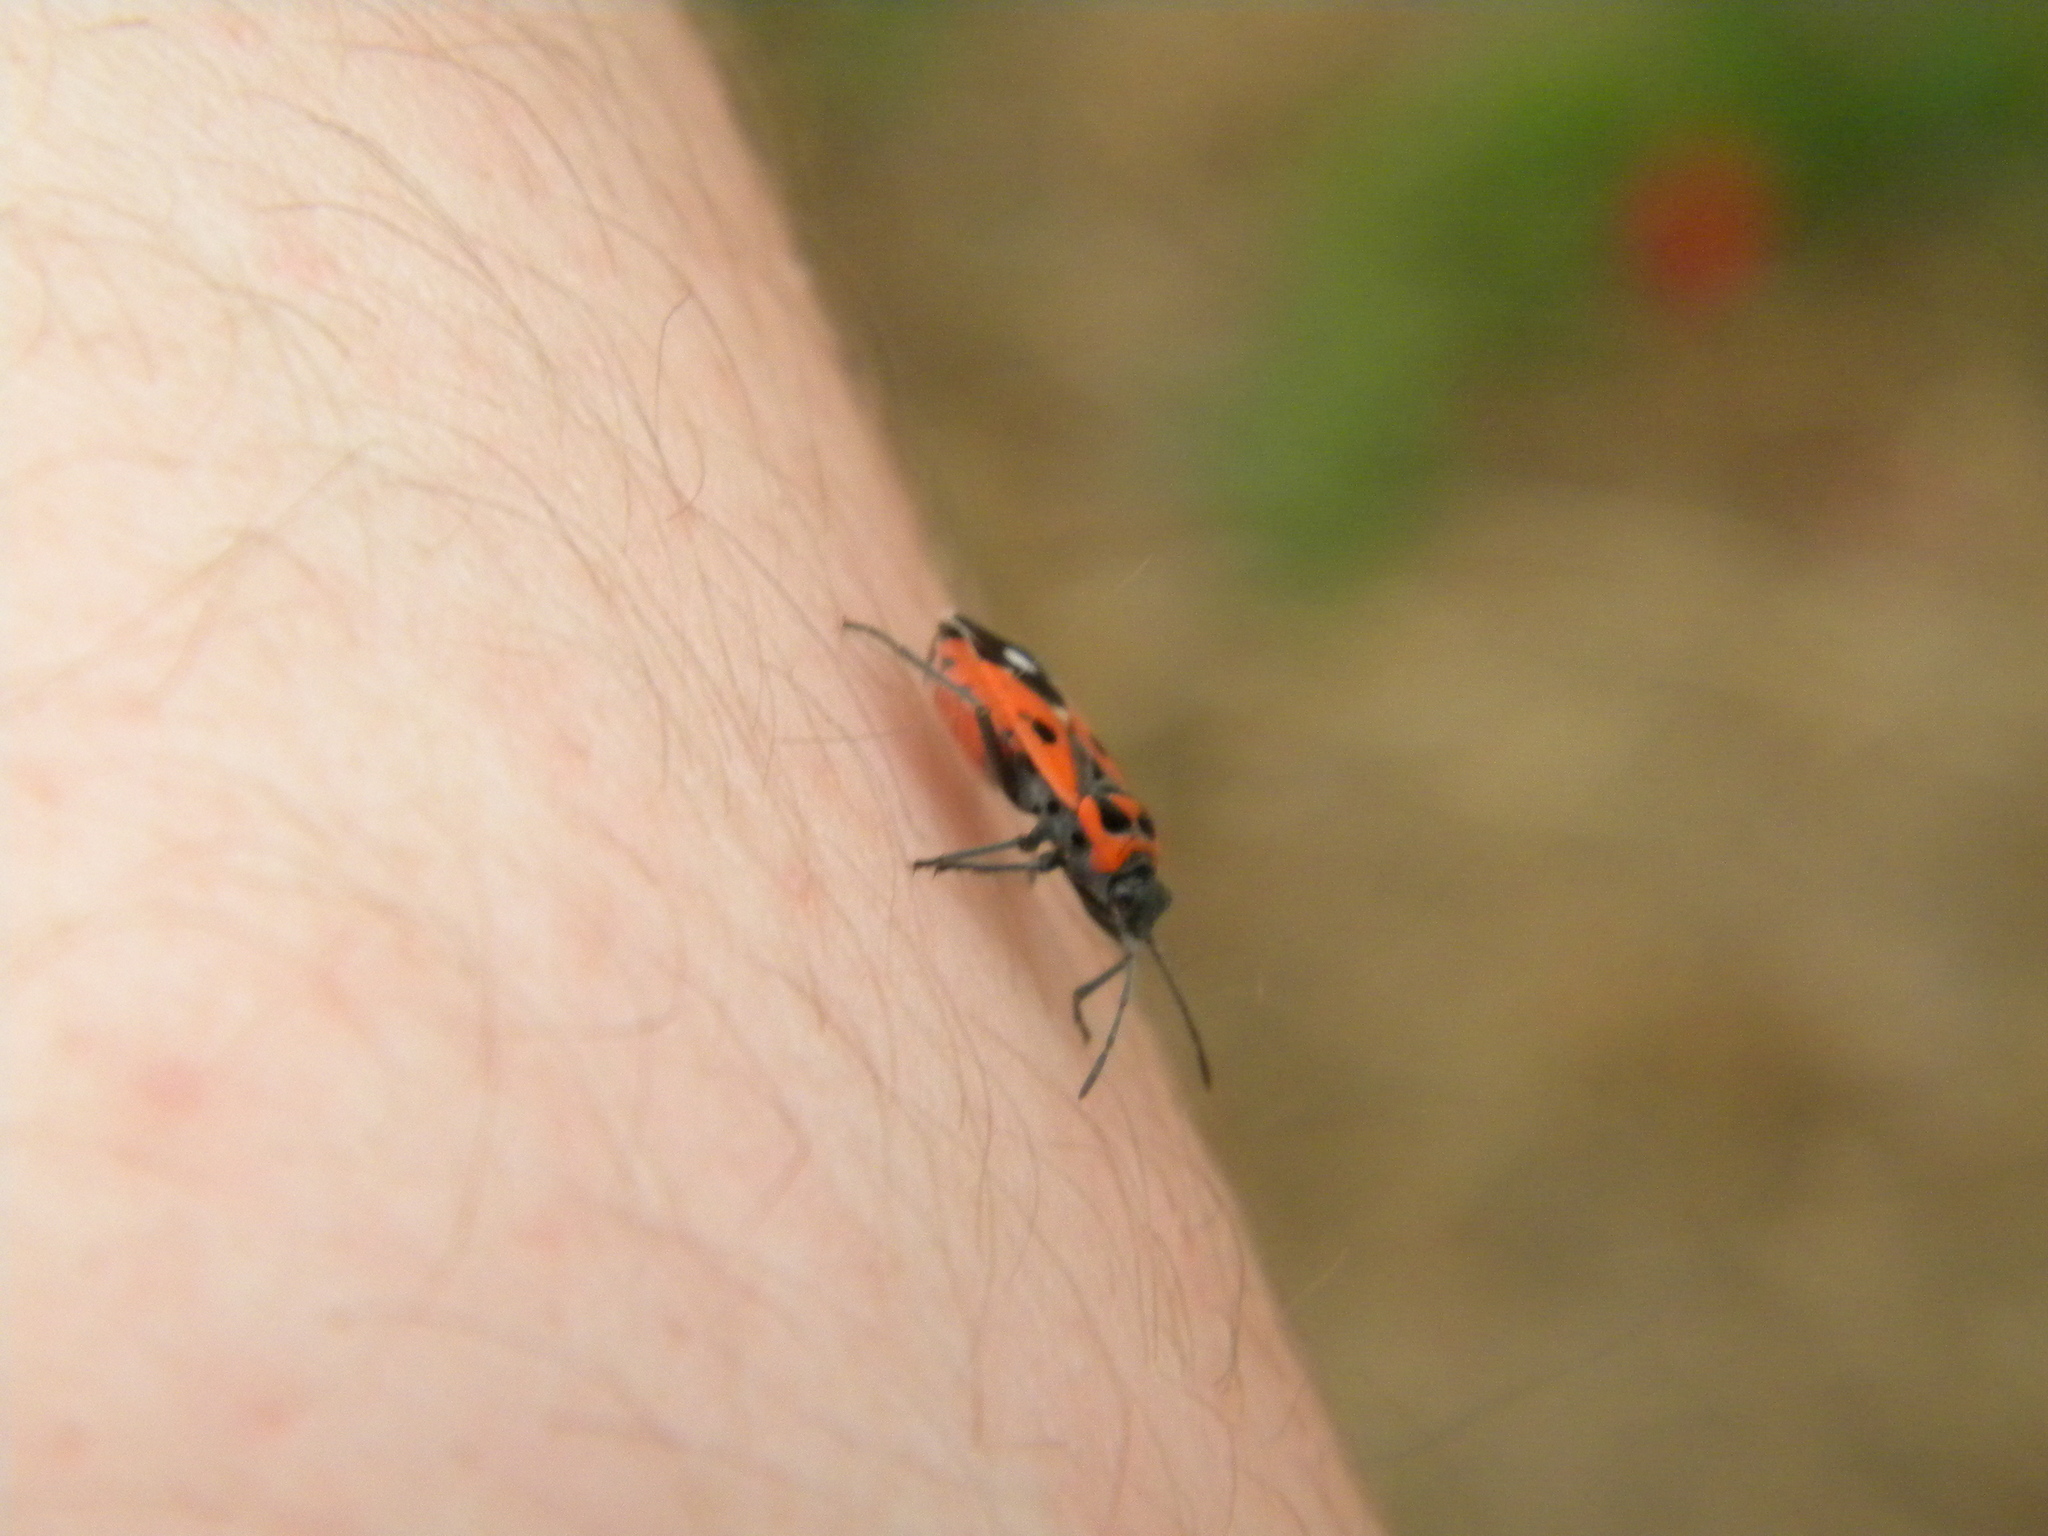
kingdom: Animalia
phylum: Arthropoda
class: Insecta
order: Hemiptera
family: Lygaeidae
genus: Melanocoryphus
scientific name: Melanocoryphus albomaculatus
